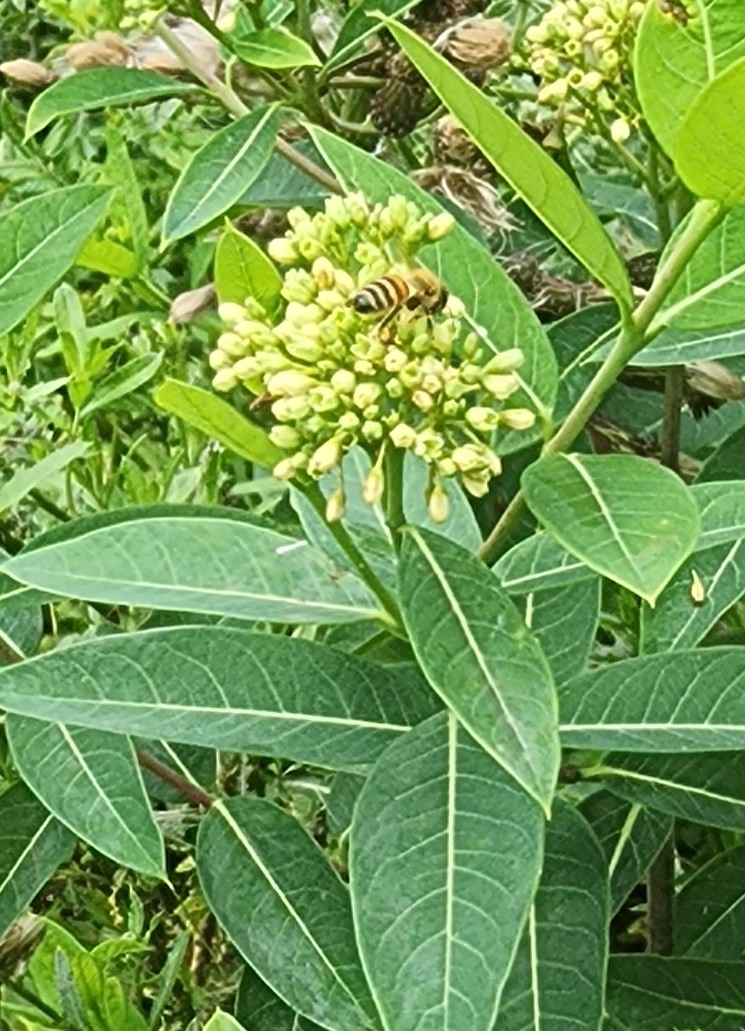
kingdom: Animalia
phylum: Arthropoda
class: Insecta
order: Hymenoptera
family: Apidae
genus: Apis
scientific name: Apis mellifera
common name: Honey bee
